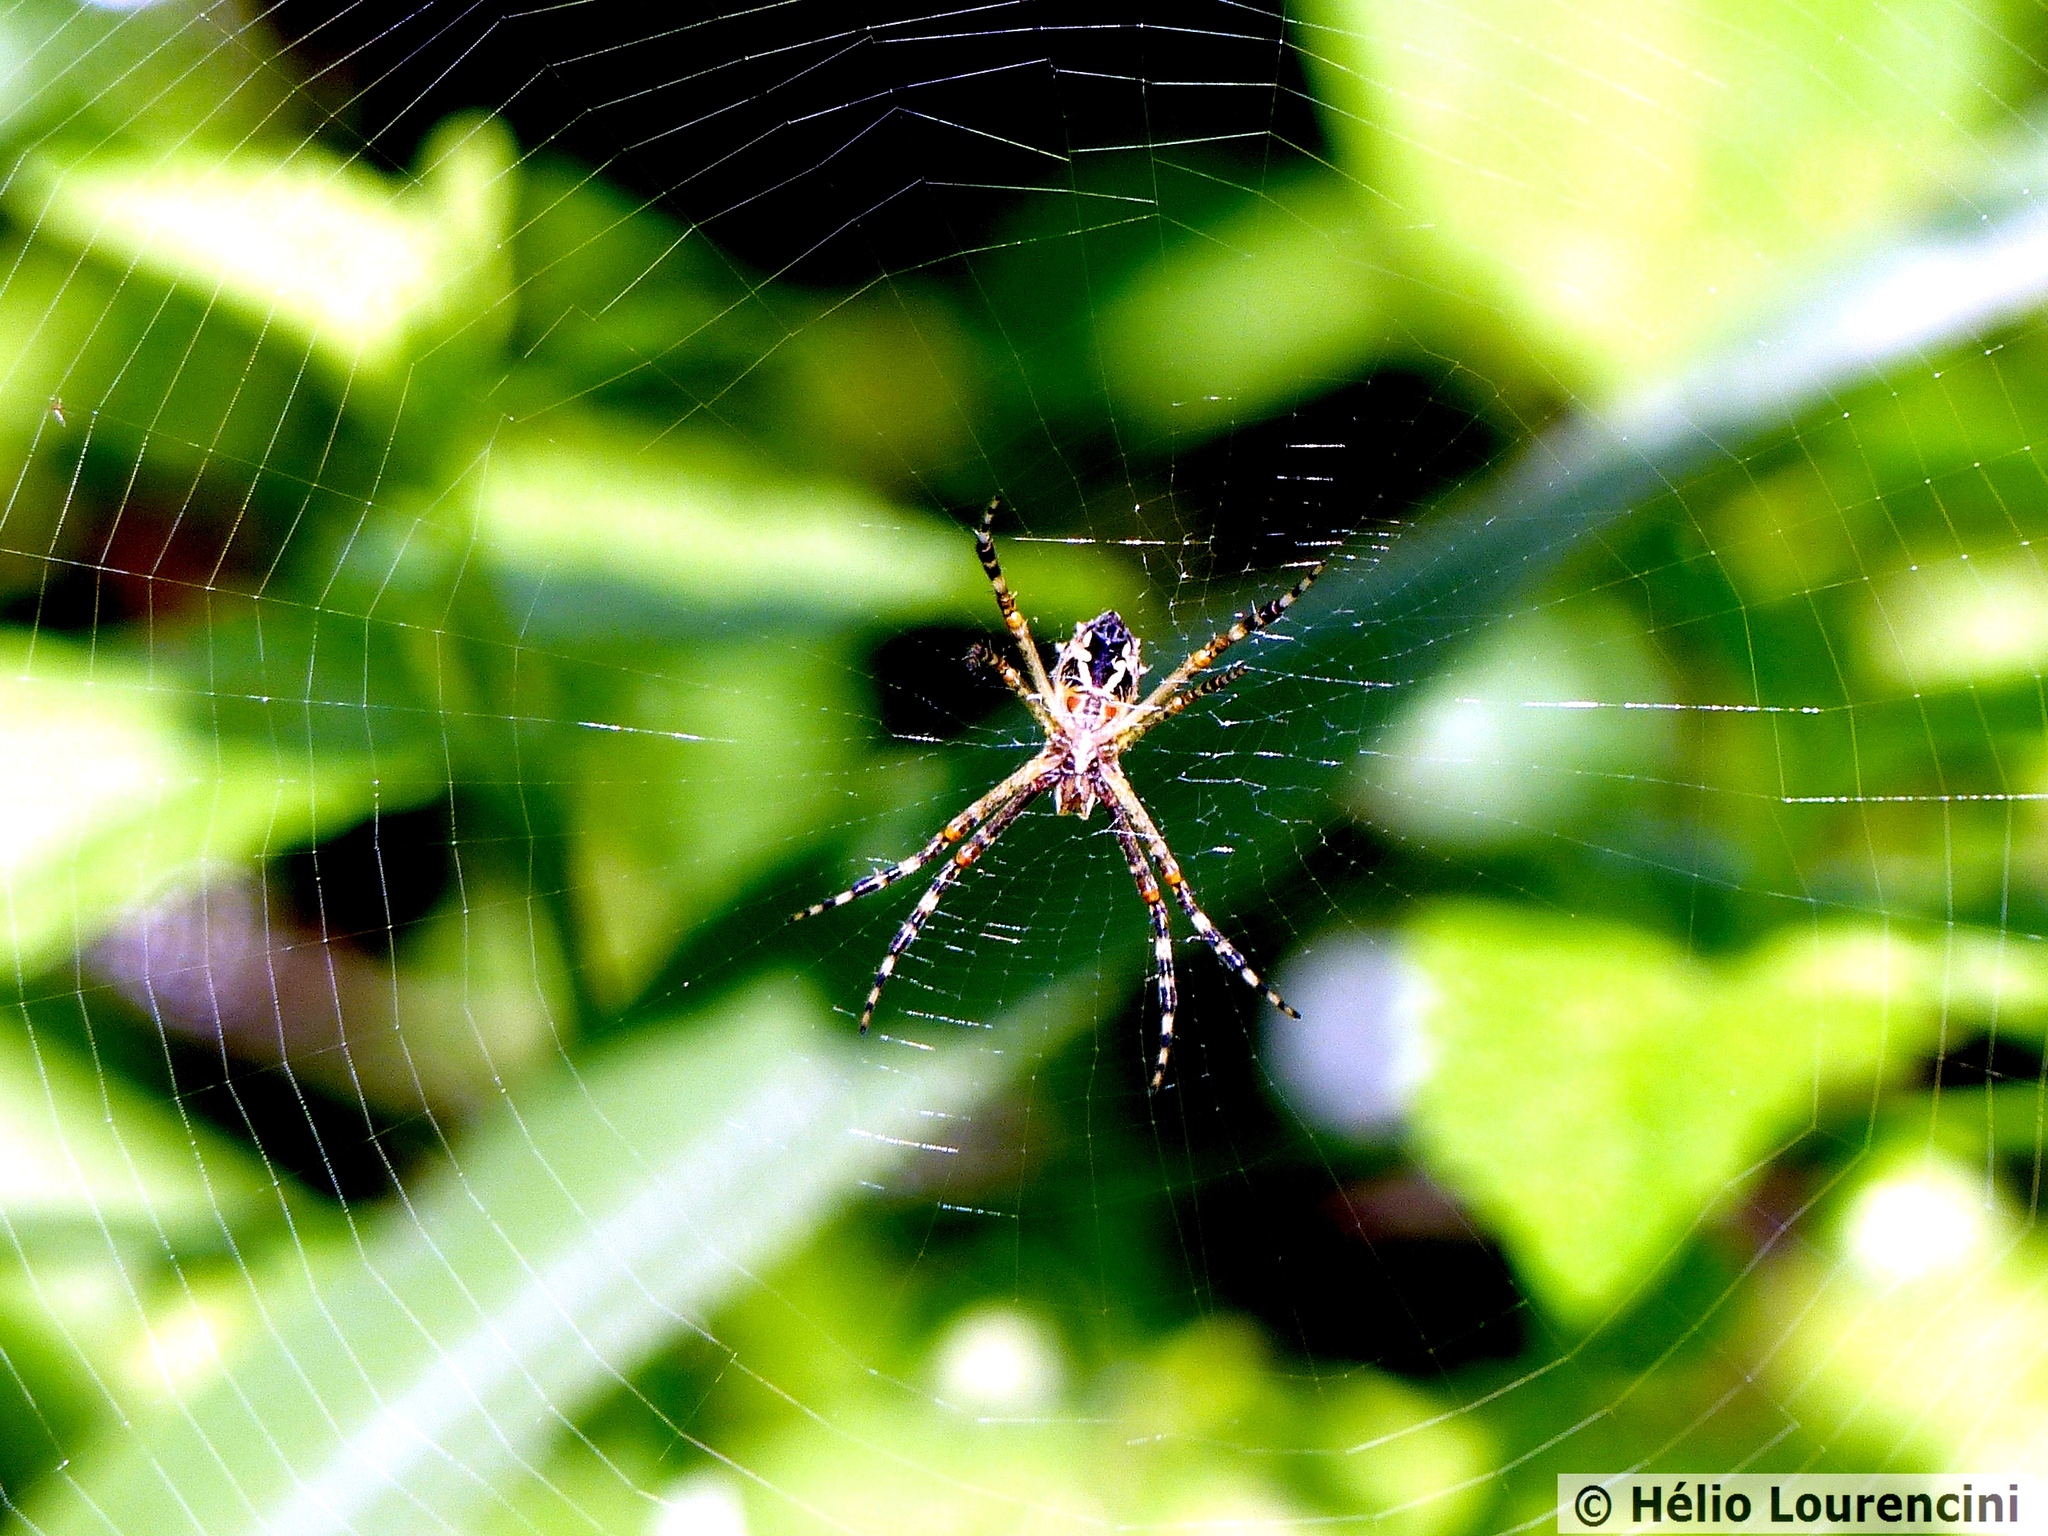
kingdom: Animalia
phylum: Arthropoda
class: Arachnida
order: Araneae
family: Araneidae
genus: Argiope
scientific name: Argiope argentata
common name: Orb weavers
